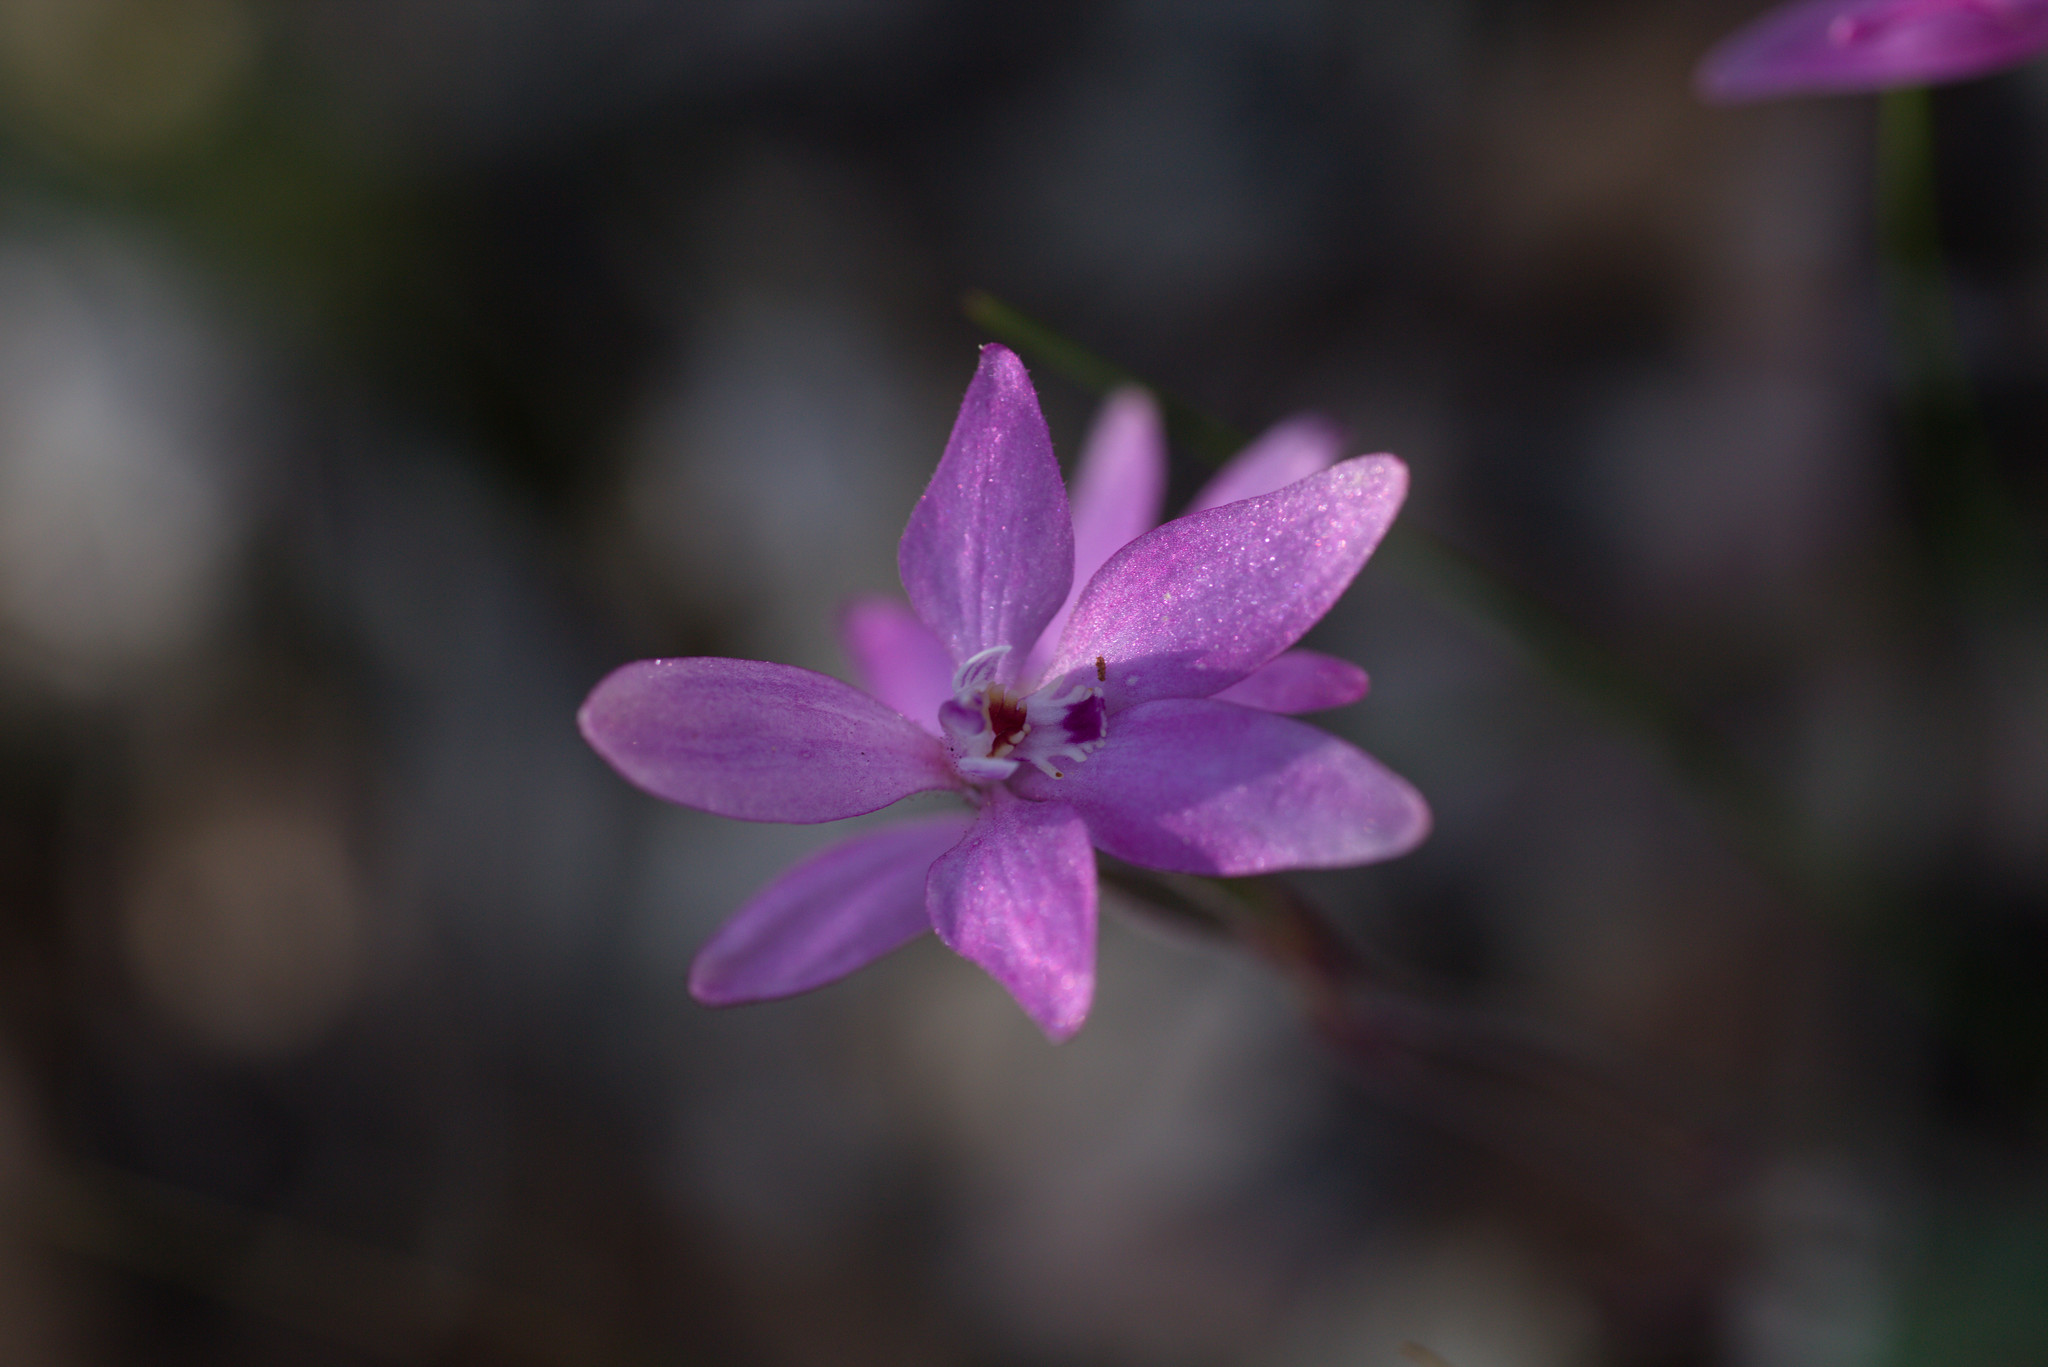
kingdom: Plantae
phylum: Tracheophyta
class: Liliopsida
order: Asparagales
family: Orchidaceae
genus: Caladenia
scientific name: Caladenia reptans
